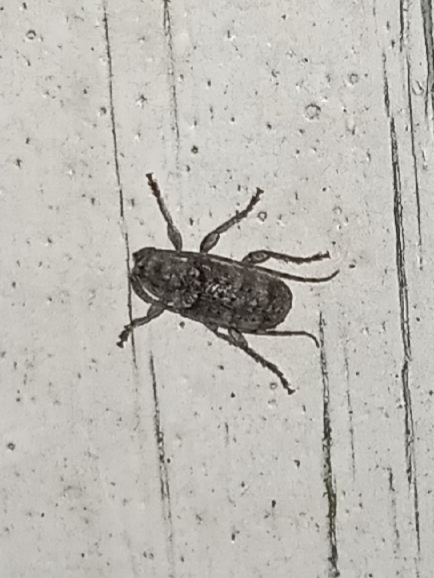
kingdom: Animalia
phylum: Arthropoda
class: Insecta
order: Coleoptera
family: Cerambycidae
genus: Ecyrus
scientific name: Ecyrus dasycerus
